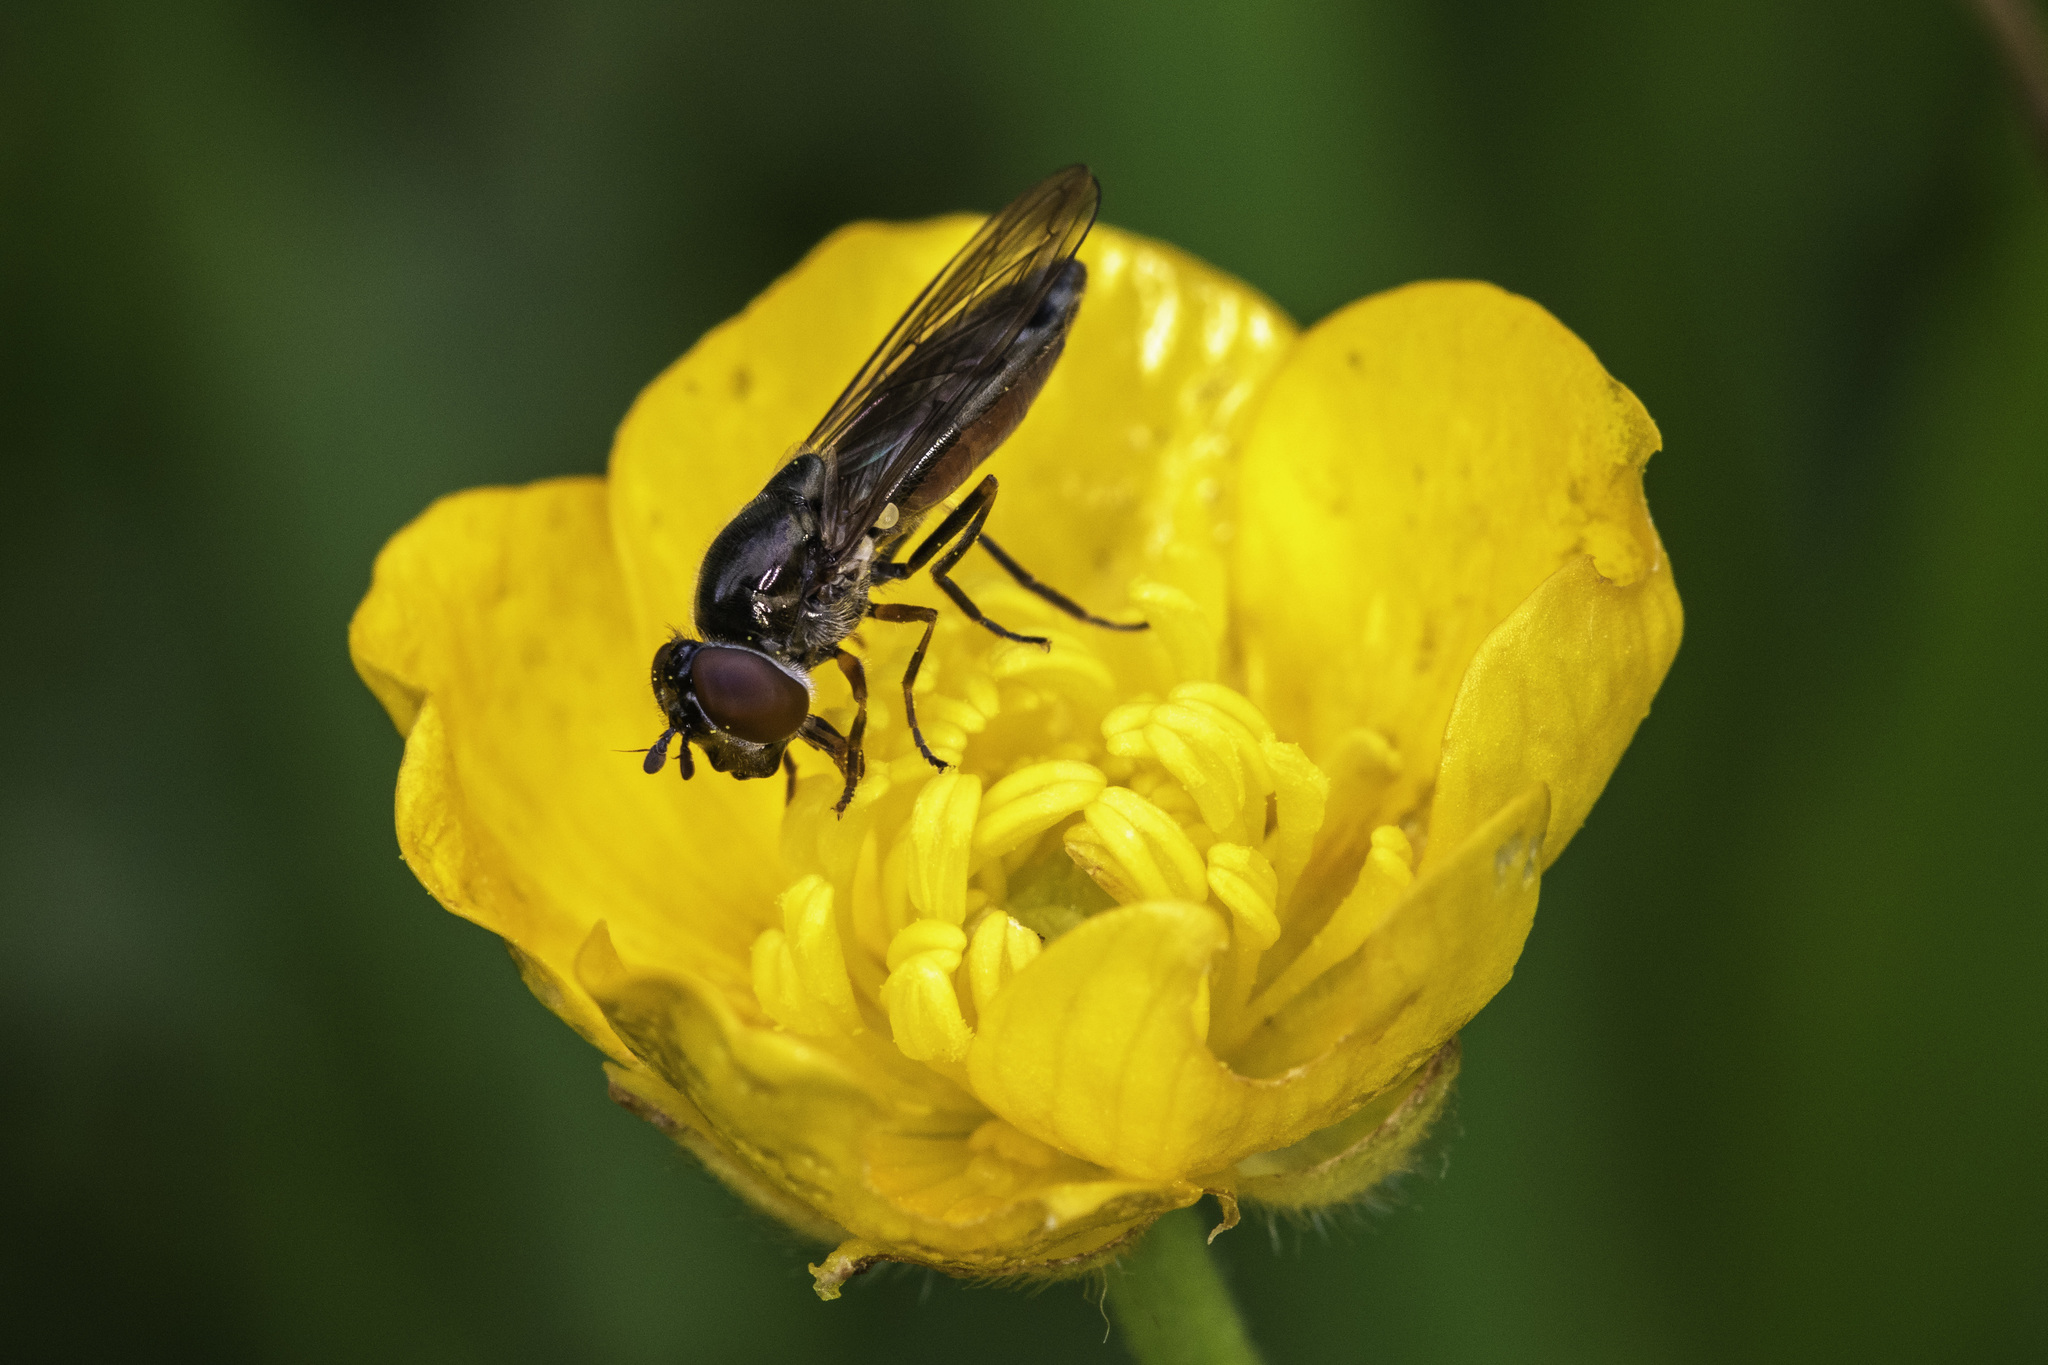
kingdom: Animalia
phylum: Arthropoda
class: Insecta
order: Diptera
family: Syrphidae
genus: Platycheirus
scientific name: Platycheirus albimanus
